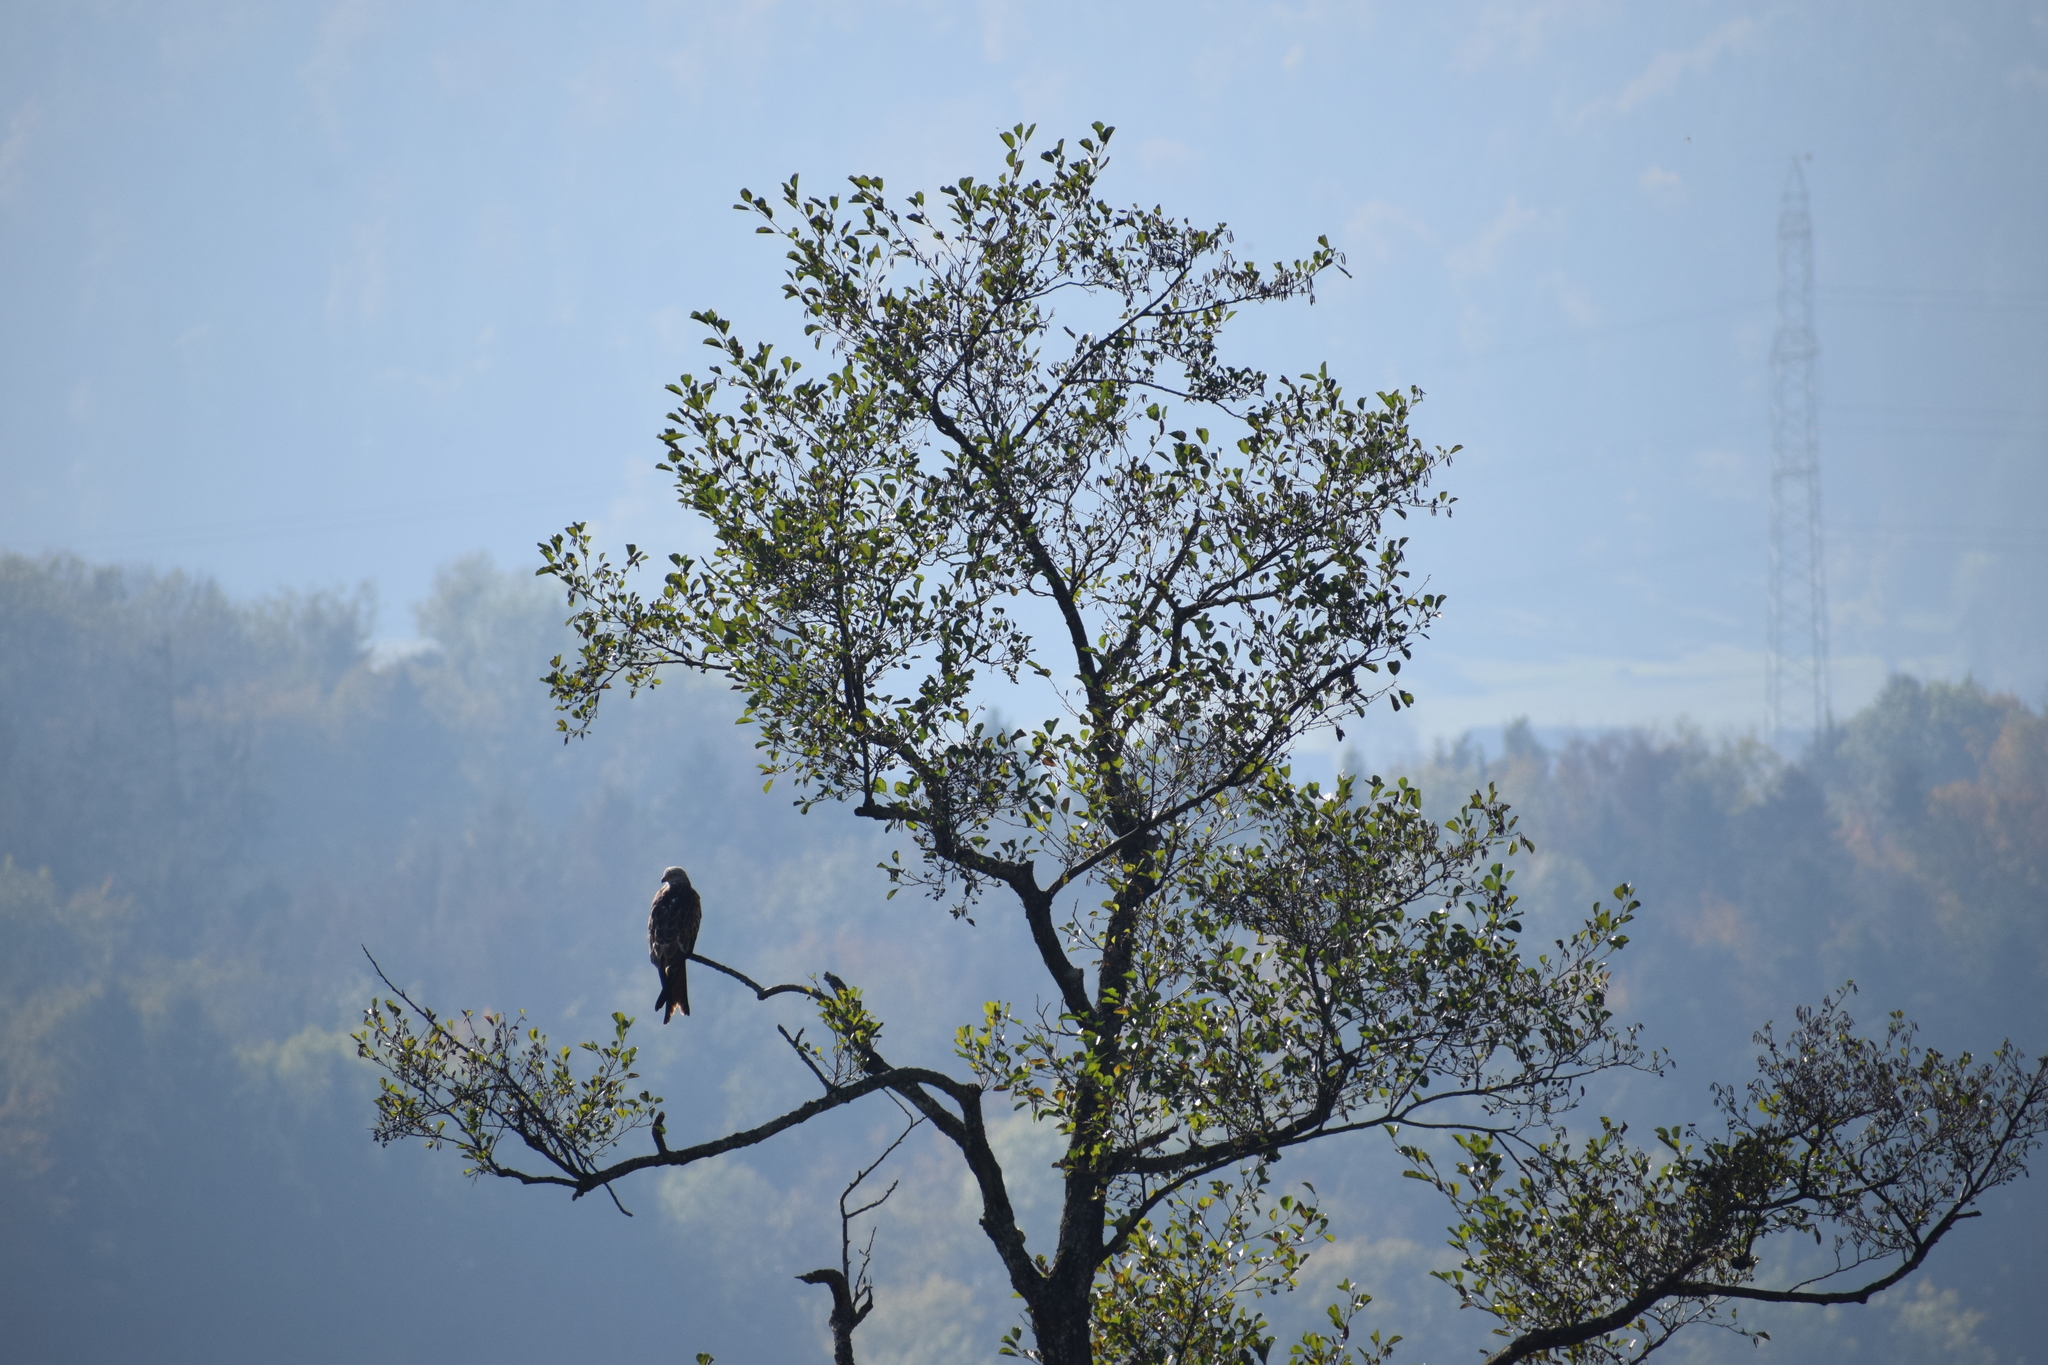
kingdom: Animalia
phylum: Chordata
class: Aves
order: Accipitriformes
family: Accipitridae
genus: Milvus
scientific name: Milvus milvus
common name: Red kite
